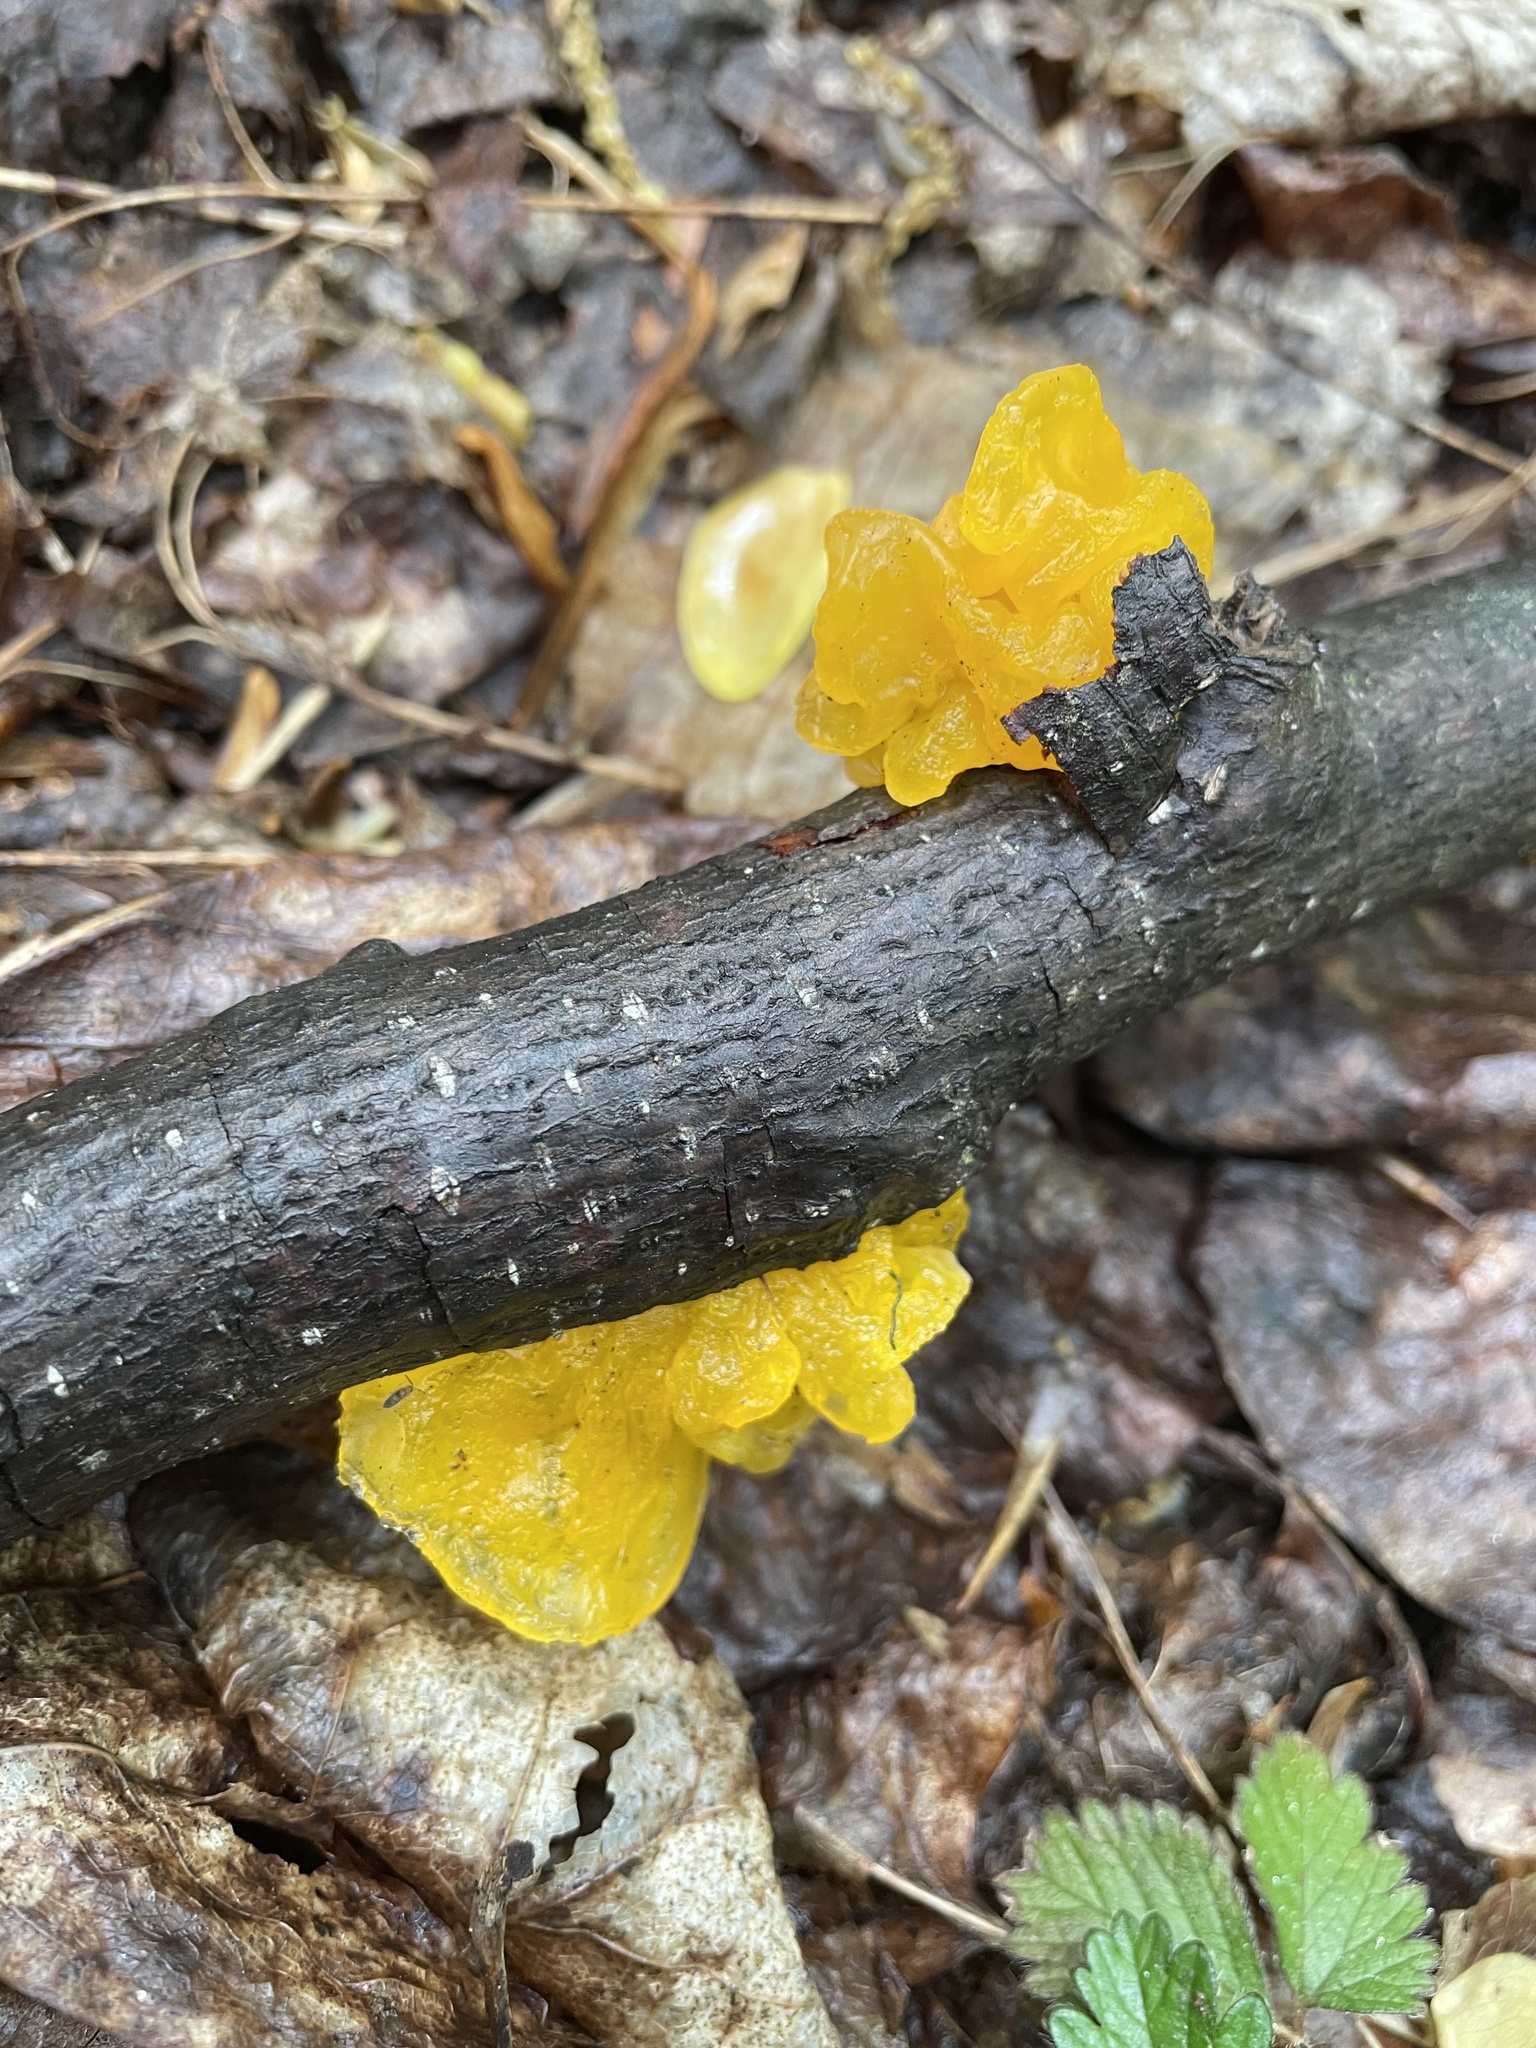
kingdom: Fungi
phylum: Basidiomycota
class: Tremellomycetes
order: Tremellales
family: Tremellaceae
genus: Tremella
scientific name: Tremella mesenterica
